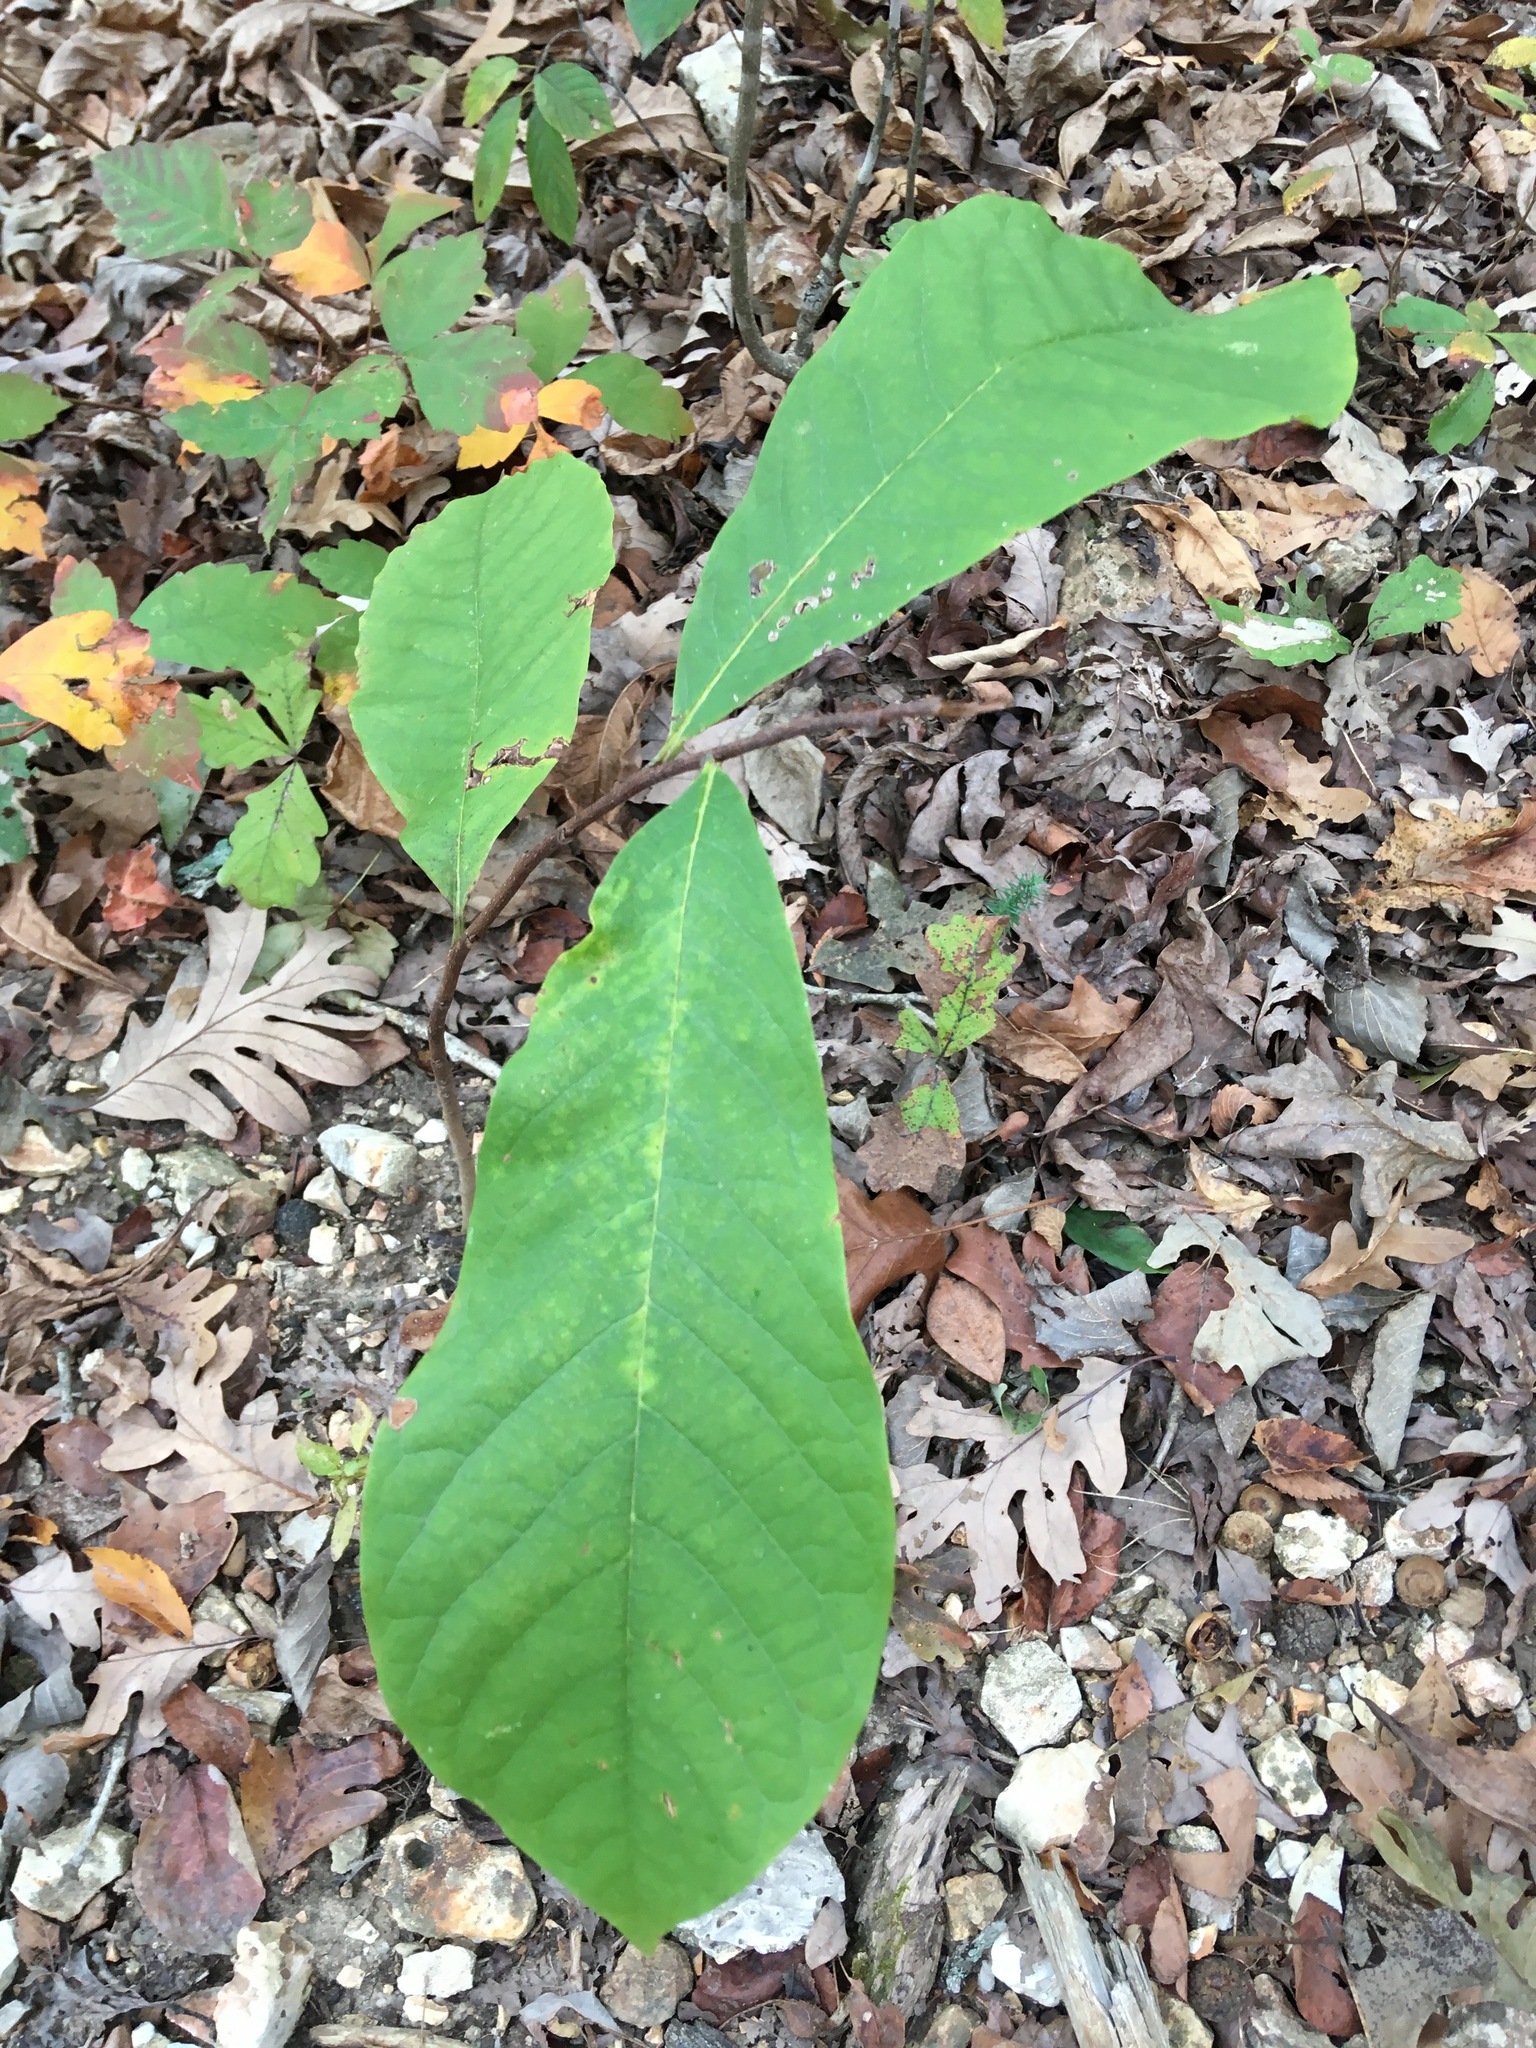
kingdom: Plantae
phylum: Tracheophyta
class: Magnoliopsida
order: Magnoliales
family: Annonaceae
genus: Asimina
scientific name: Asimina triloba
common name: Dog-banana
